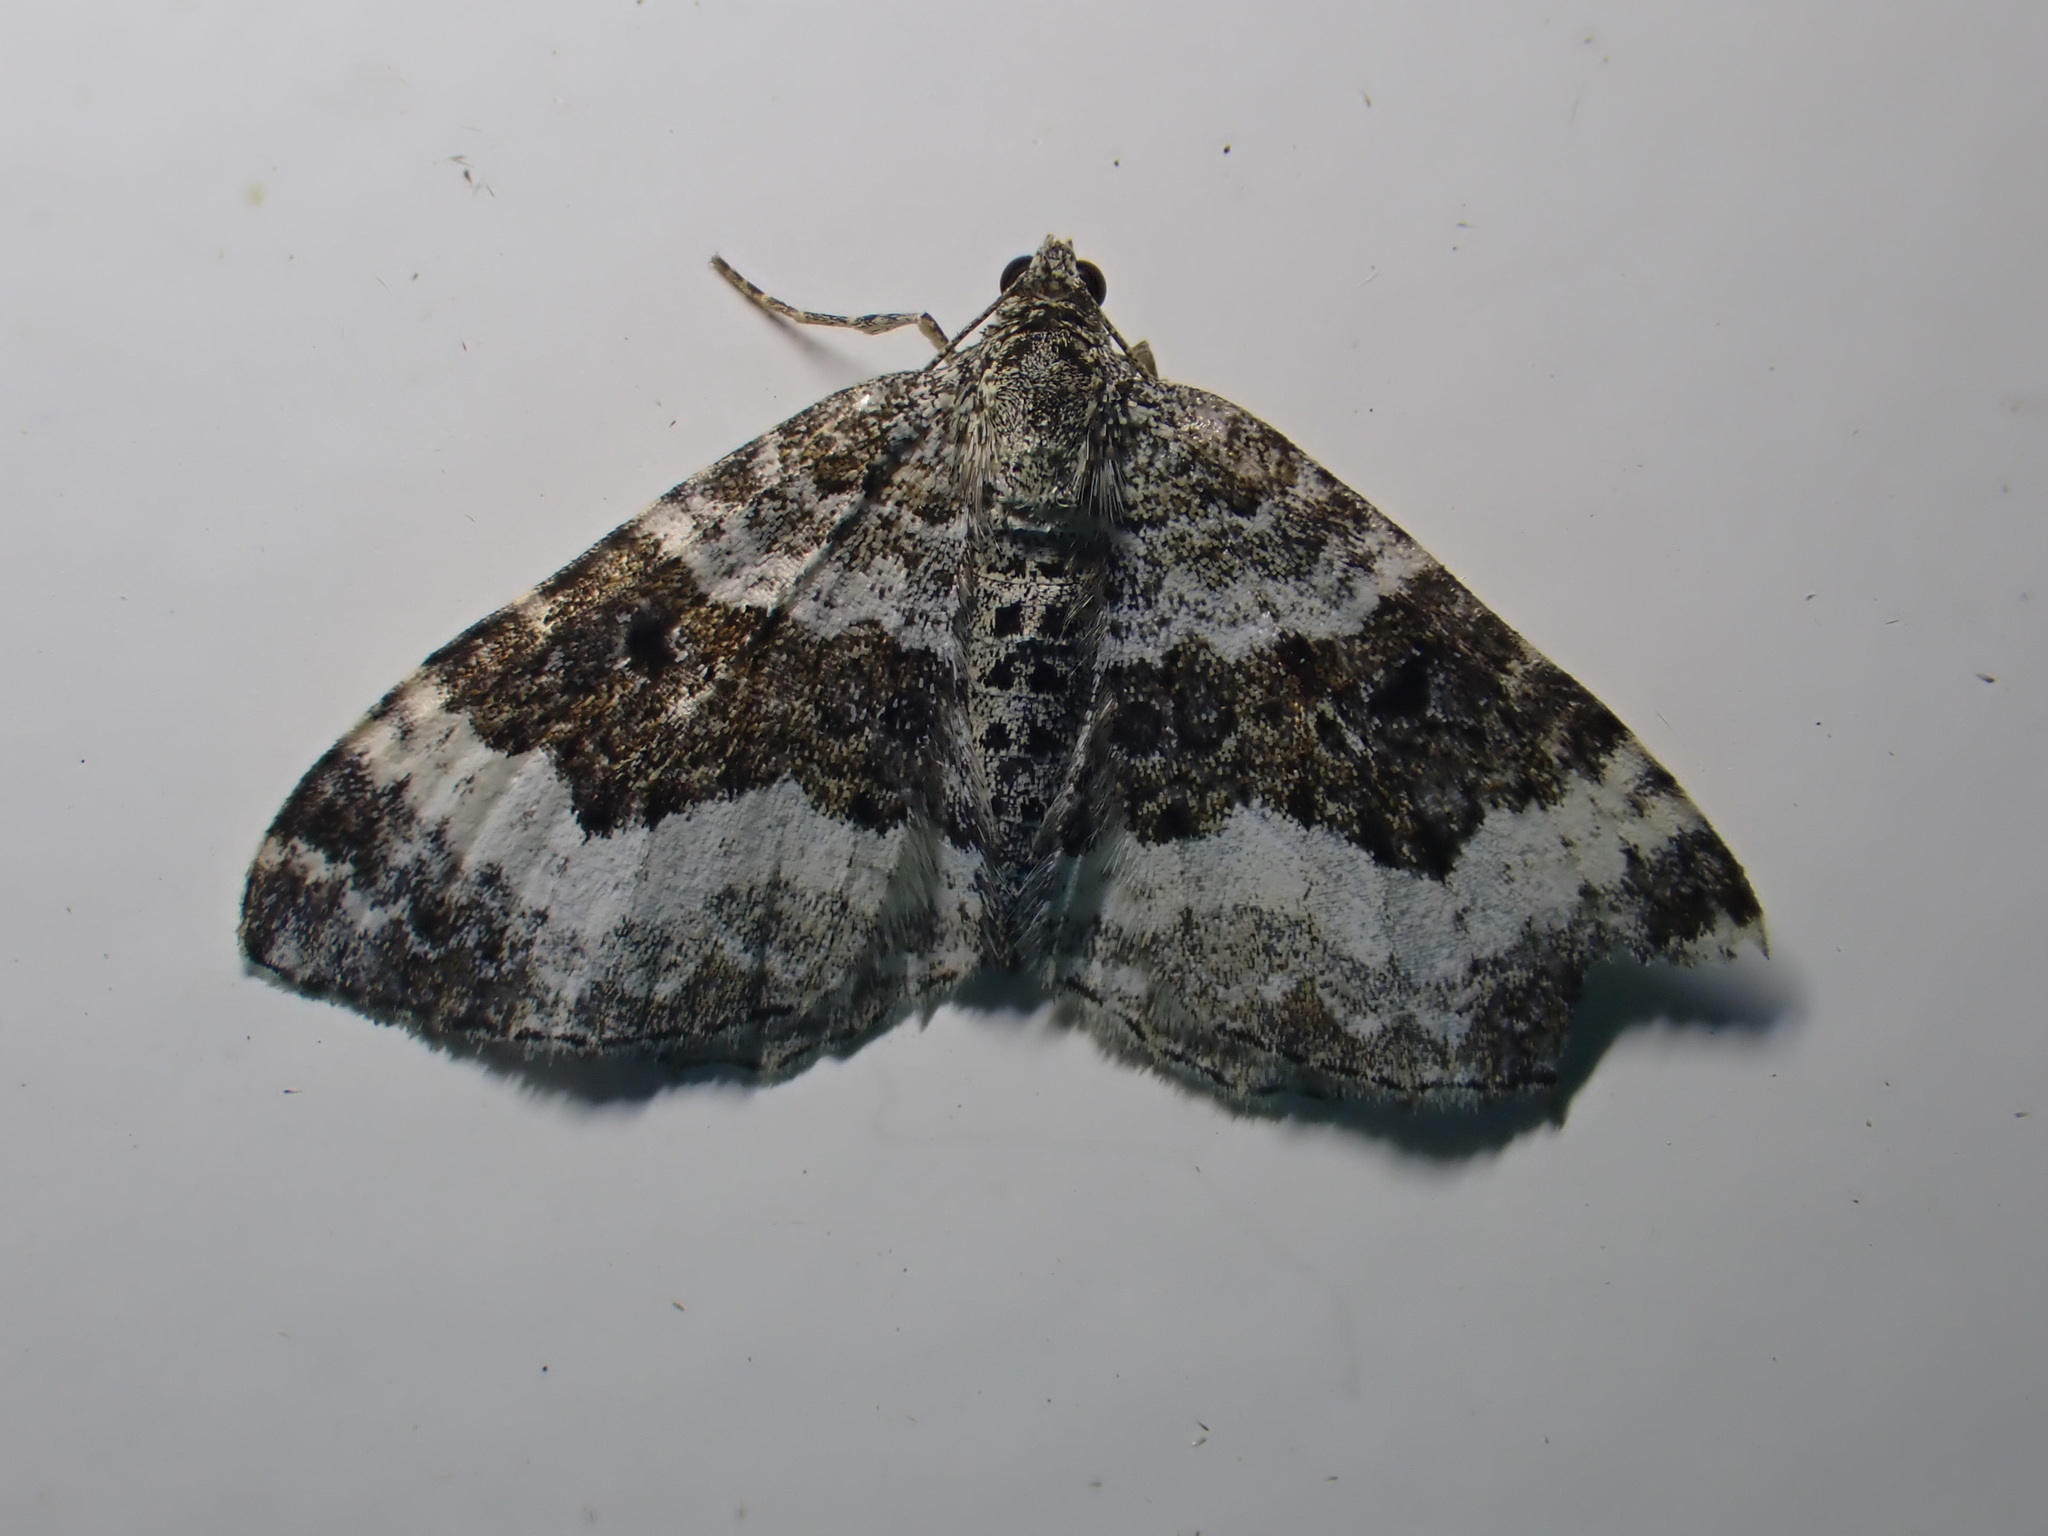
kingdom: Animalia
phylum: Arthropoda
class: Insecta
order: Lepidoptera
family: Geometridae
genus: Epirrhoe
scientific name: Epirrhoe alternata
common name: Common carpet
